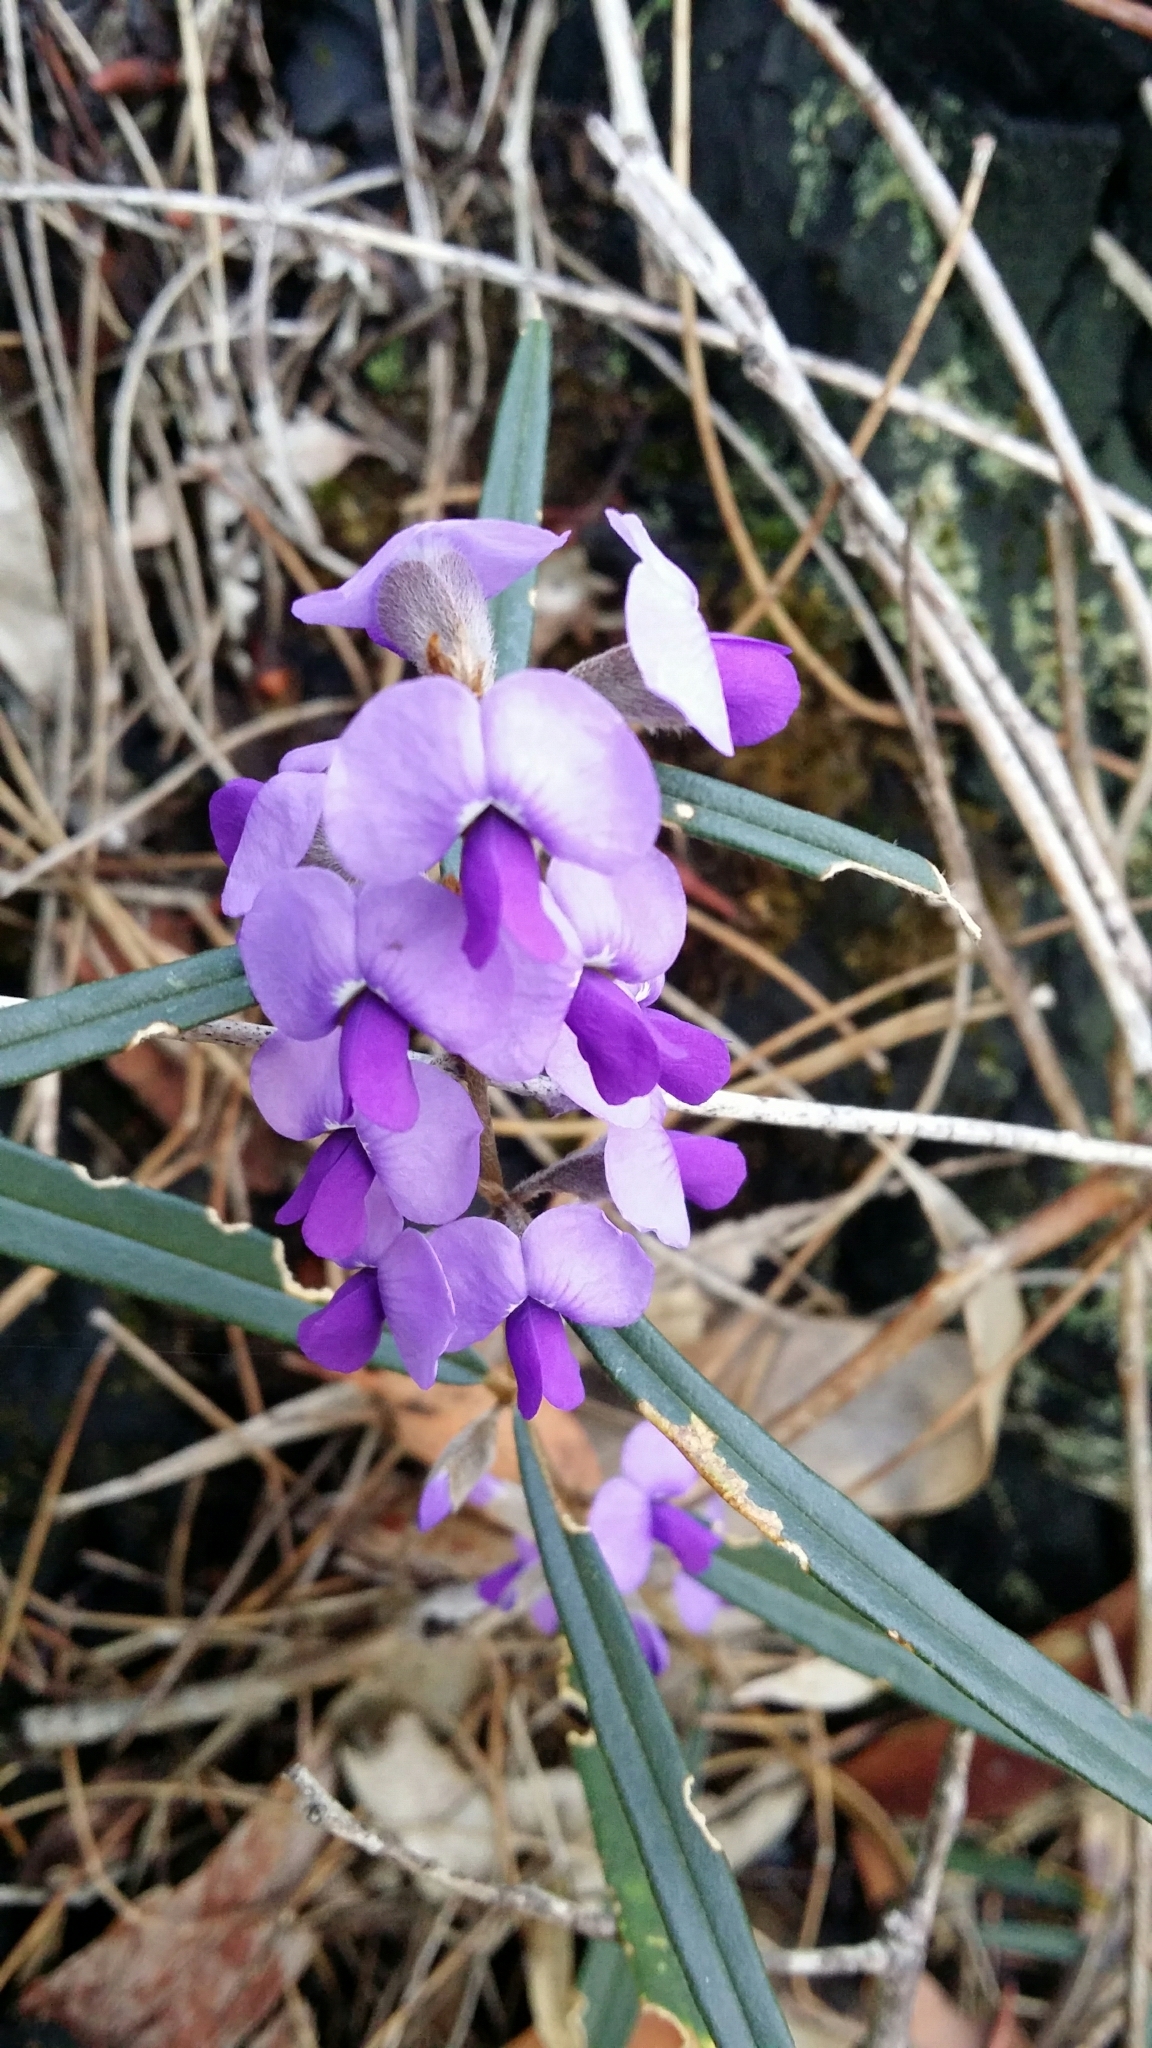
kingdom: Plantae
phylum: Tracheophyta
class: Magnoliopsida
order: Fabales
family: Fabaceae
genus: Hovea
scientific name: Hovea trisperma
